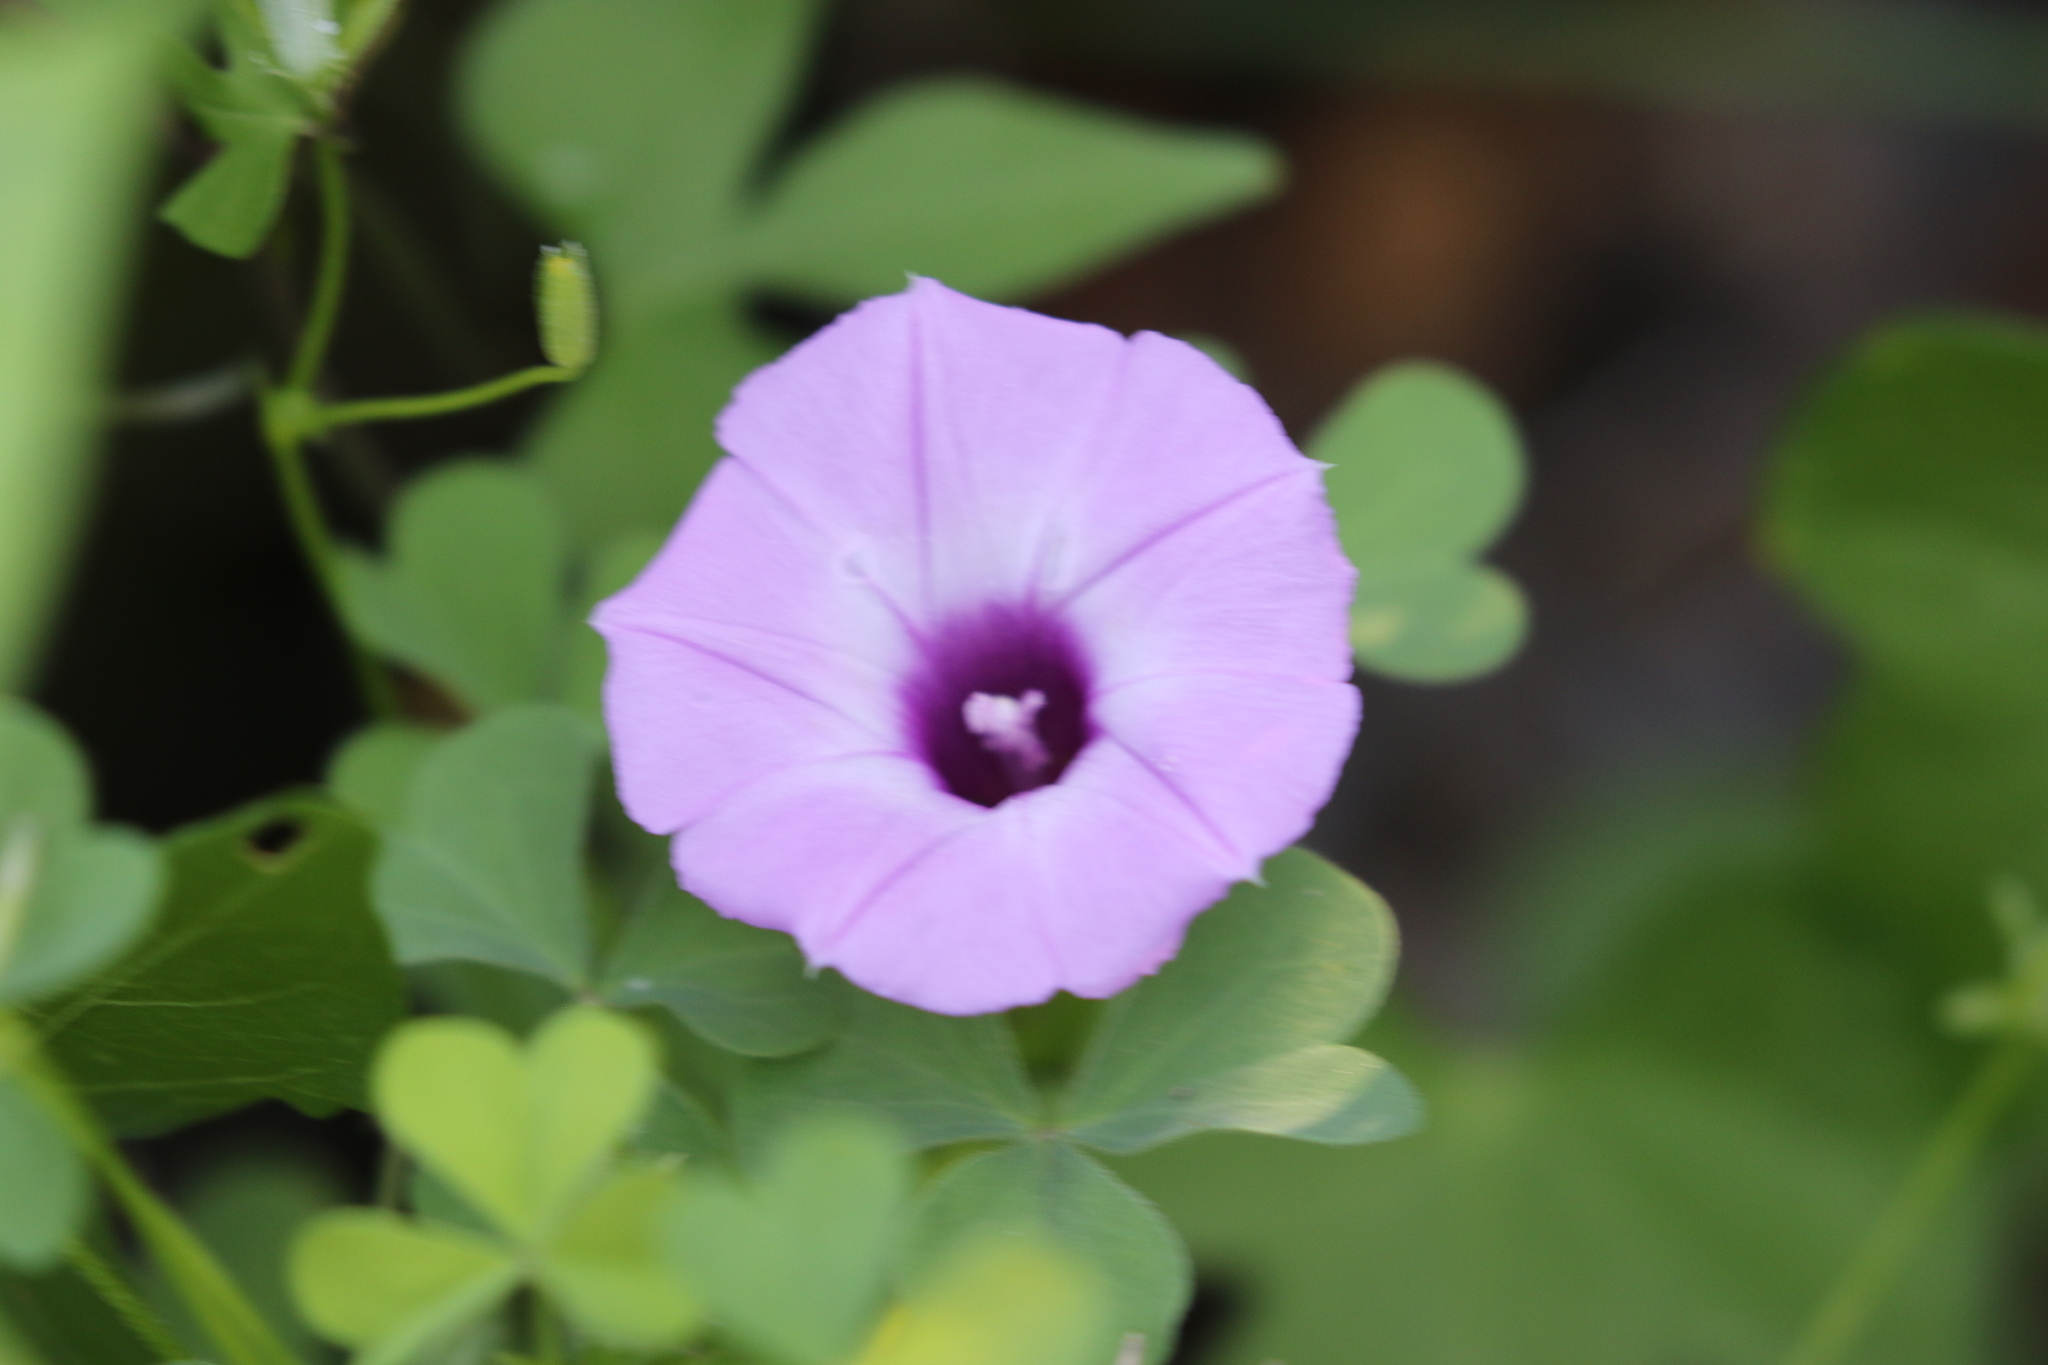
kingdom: Plantae
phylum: Tracheophyta
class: Magnoliopsida
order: Solanales
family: Convolvulaceae
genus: Ipomoea
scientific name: Ipomoea cordatotriloba
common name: Cotton morning glory
